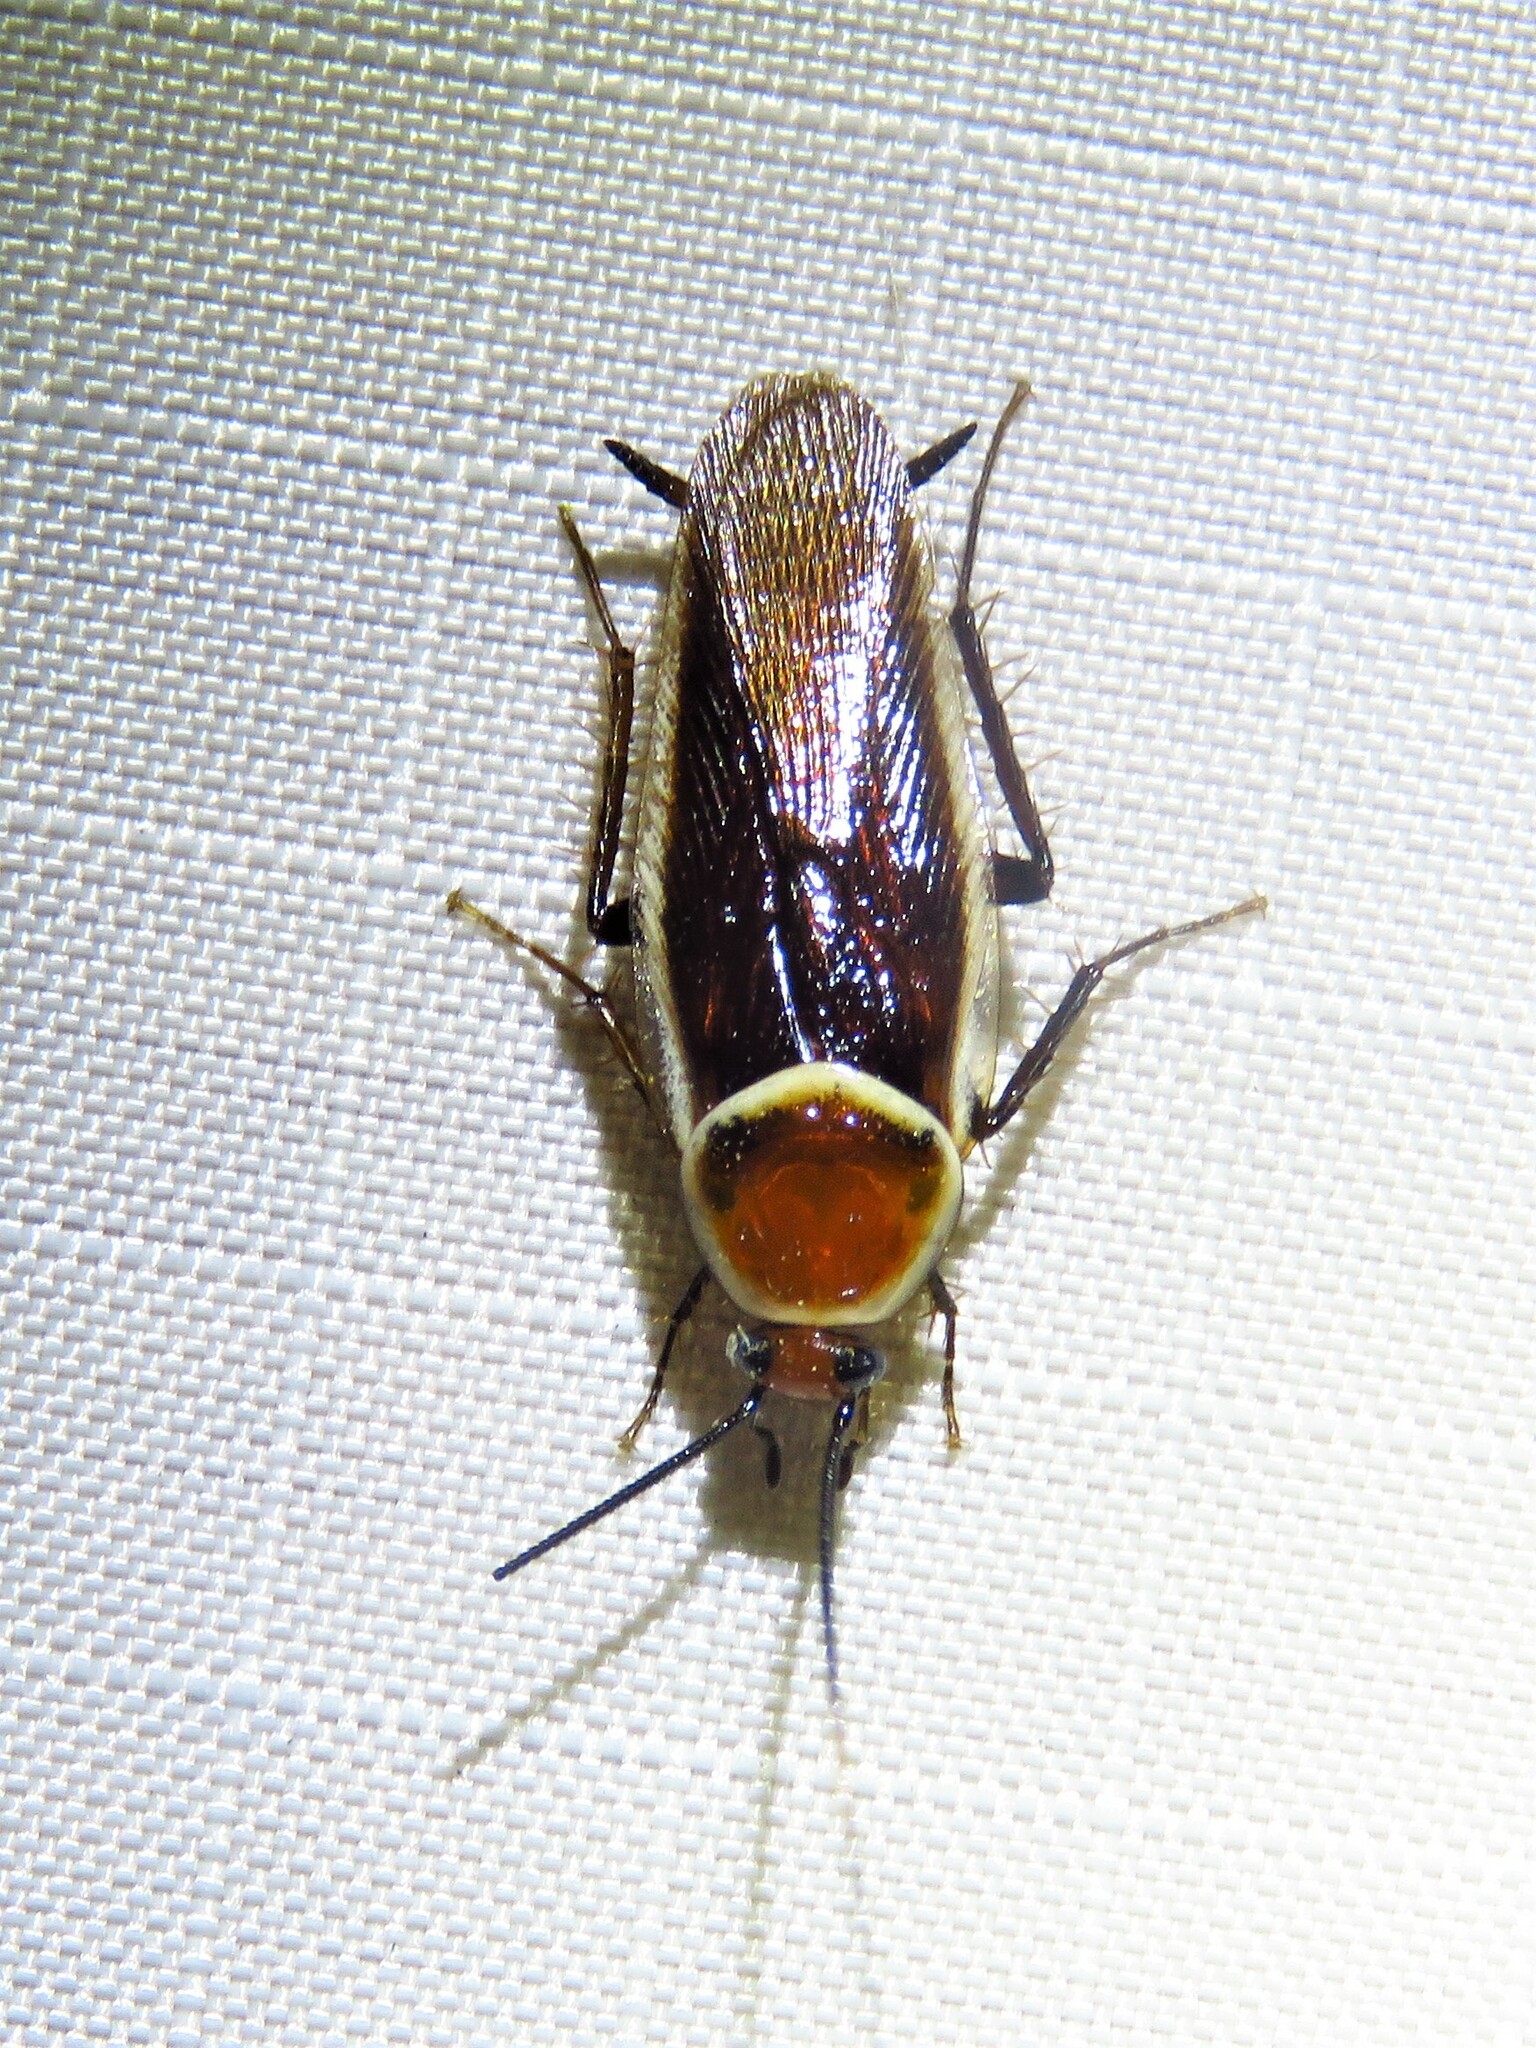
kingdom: Animalia
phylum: Arthropoda
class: Insecta
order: Blattodea
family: Ectobiidae
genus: Pseudomops
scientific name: Pseudomops septentrionalis
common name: Pale-bordered field cockroach
